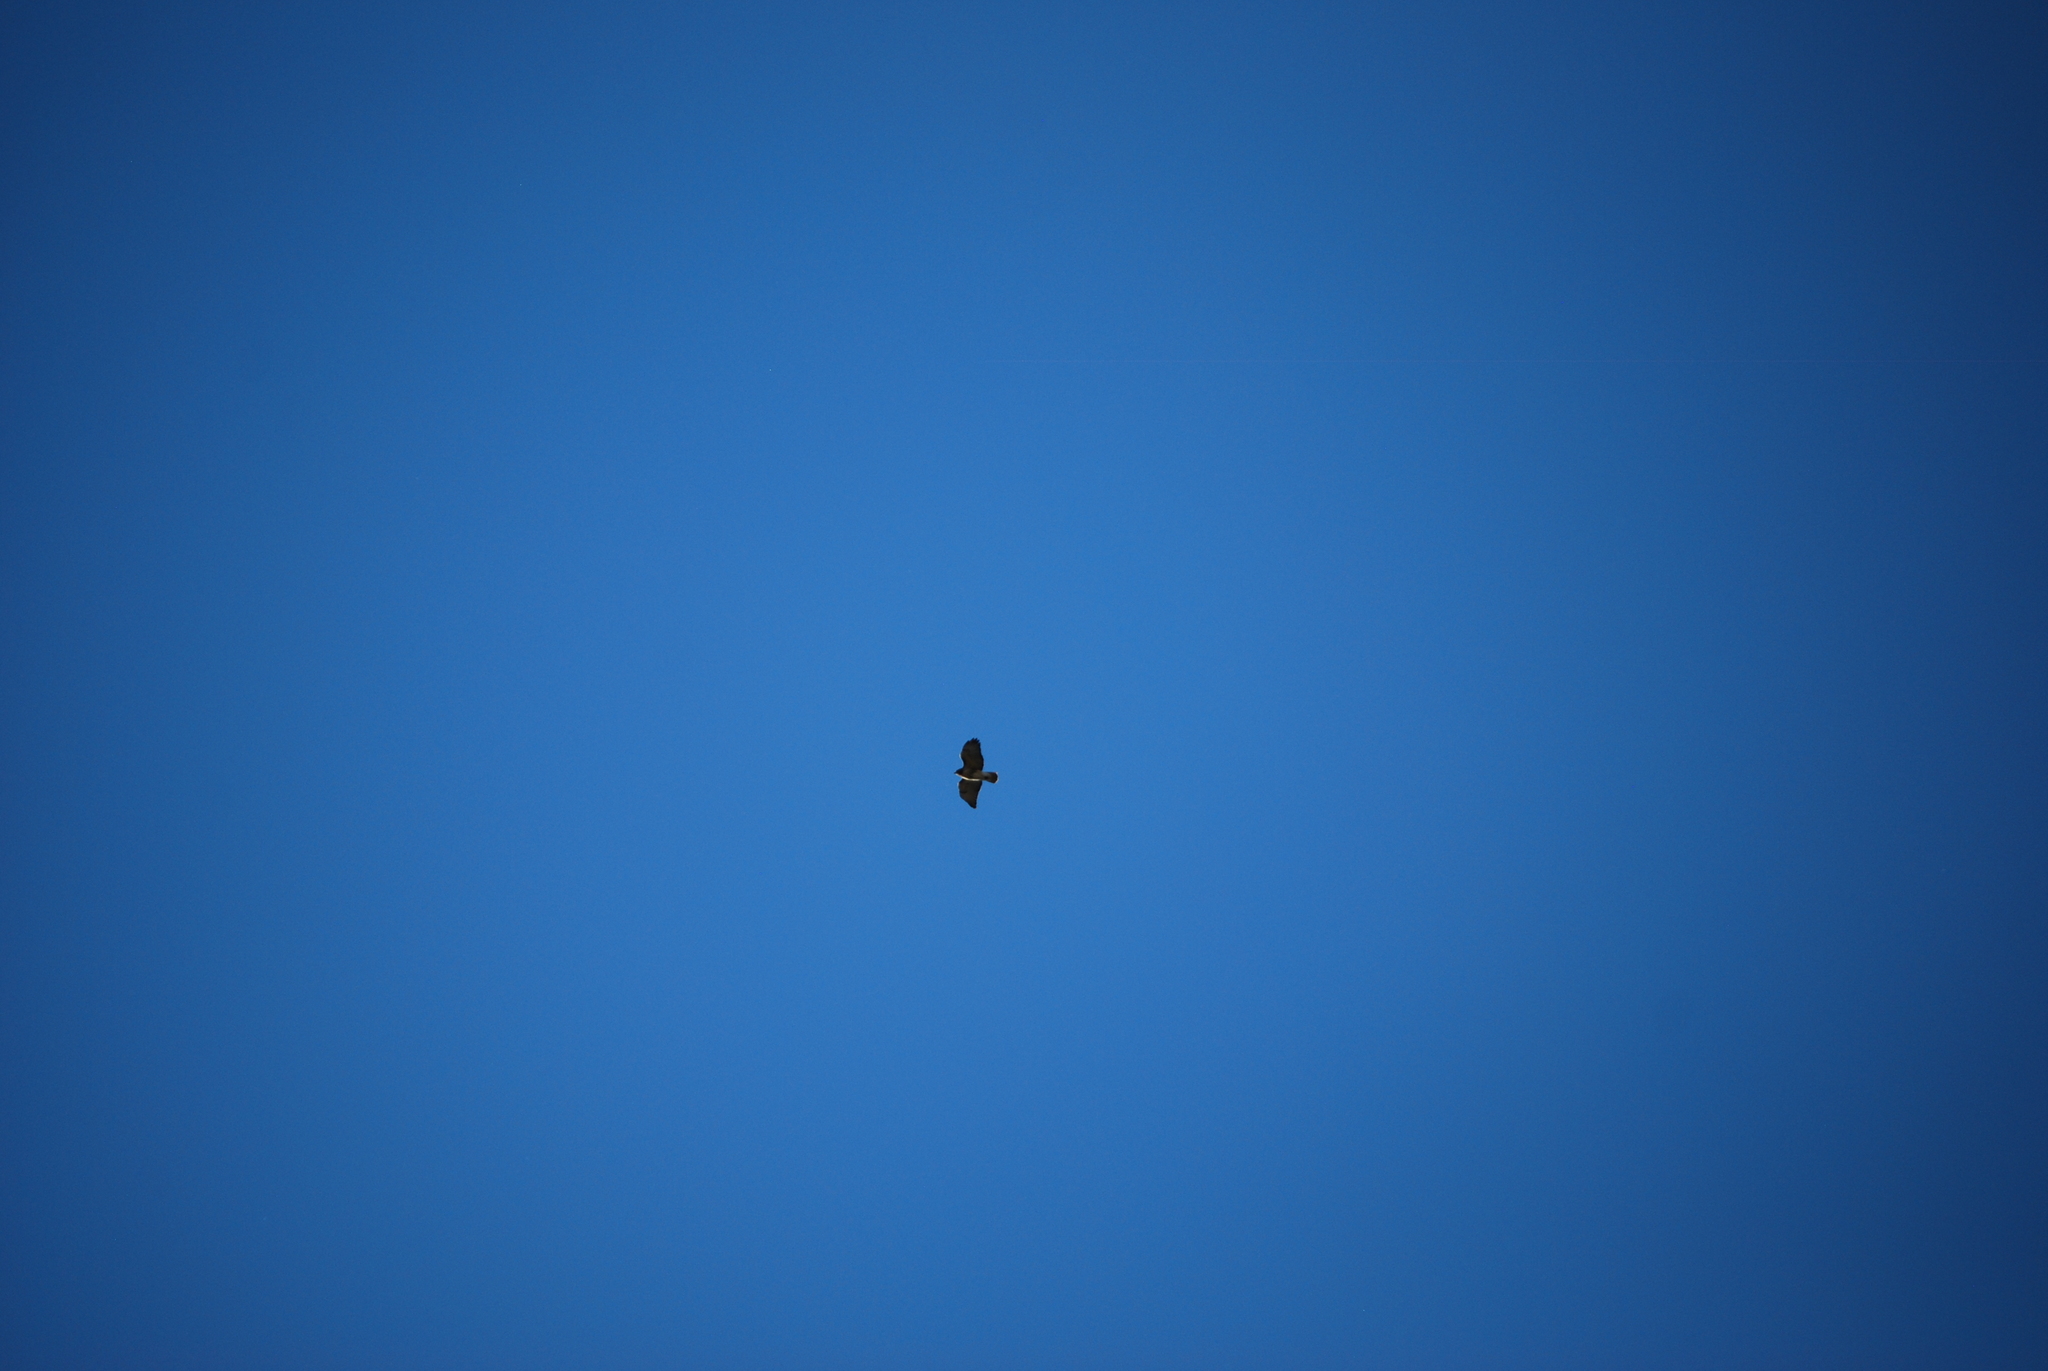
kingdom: Animalia
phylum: Chordata
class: Aves
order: Accipitriformes
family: Accipitridae
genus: Buteo
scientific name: Buteo jamaicensis
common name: Red-tailed hawk
